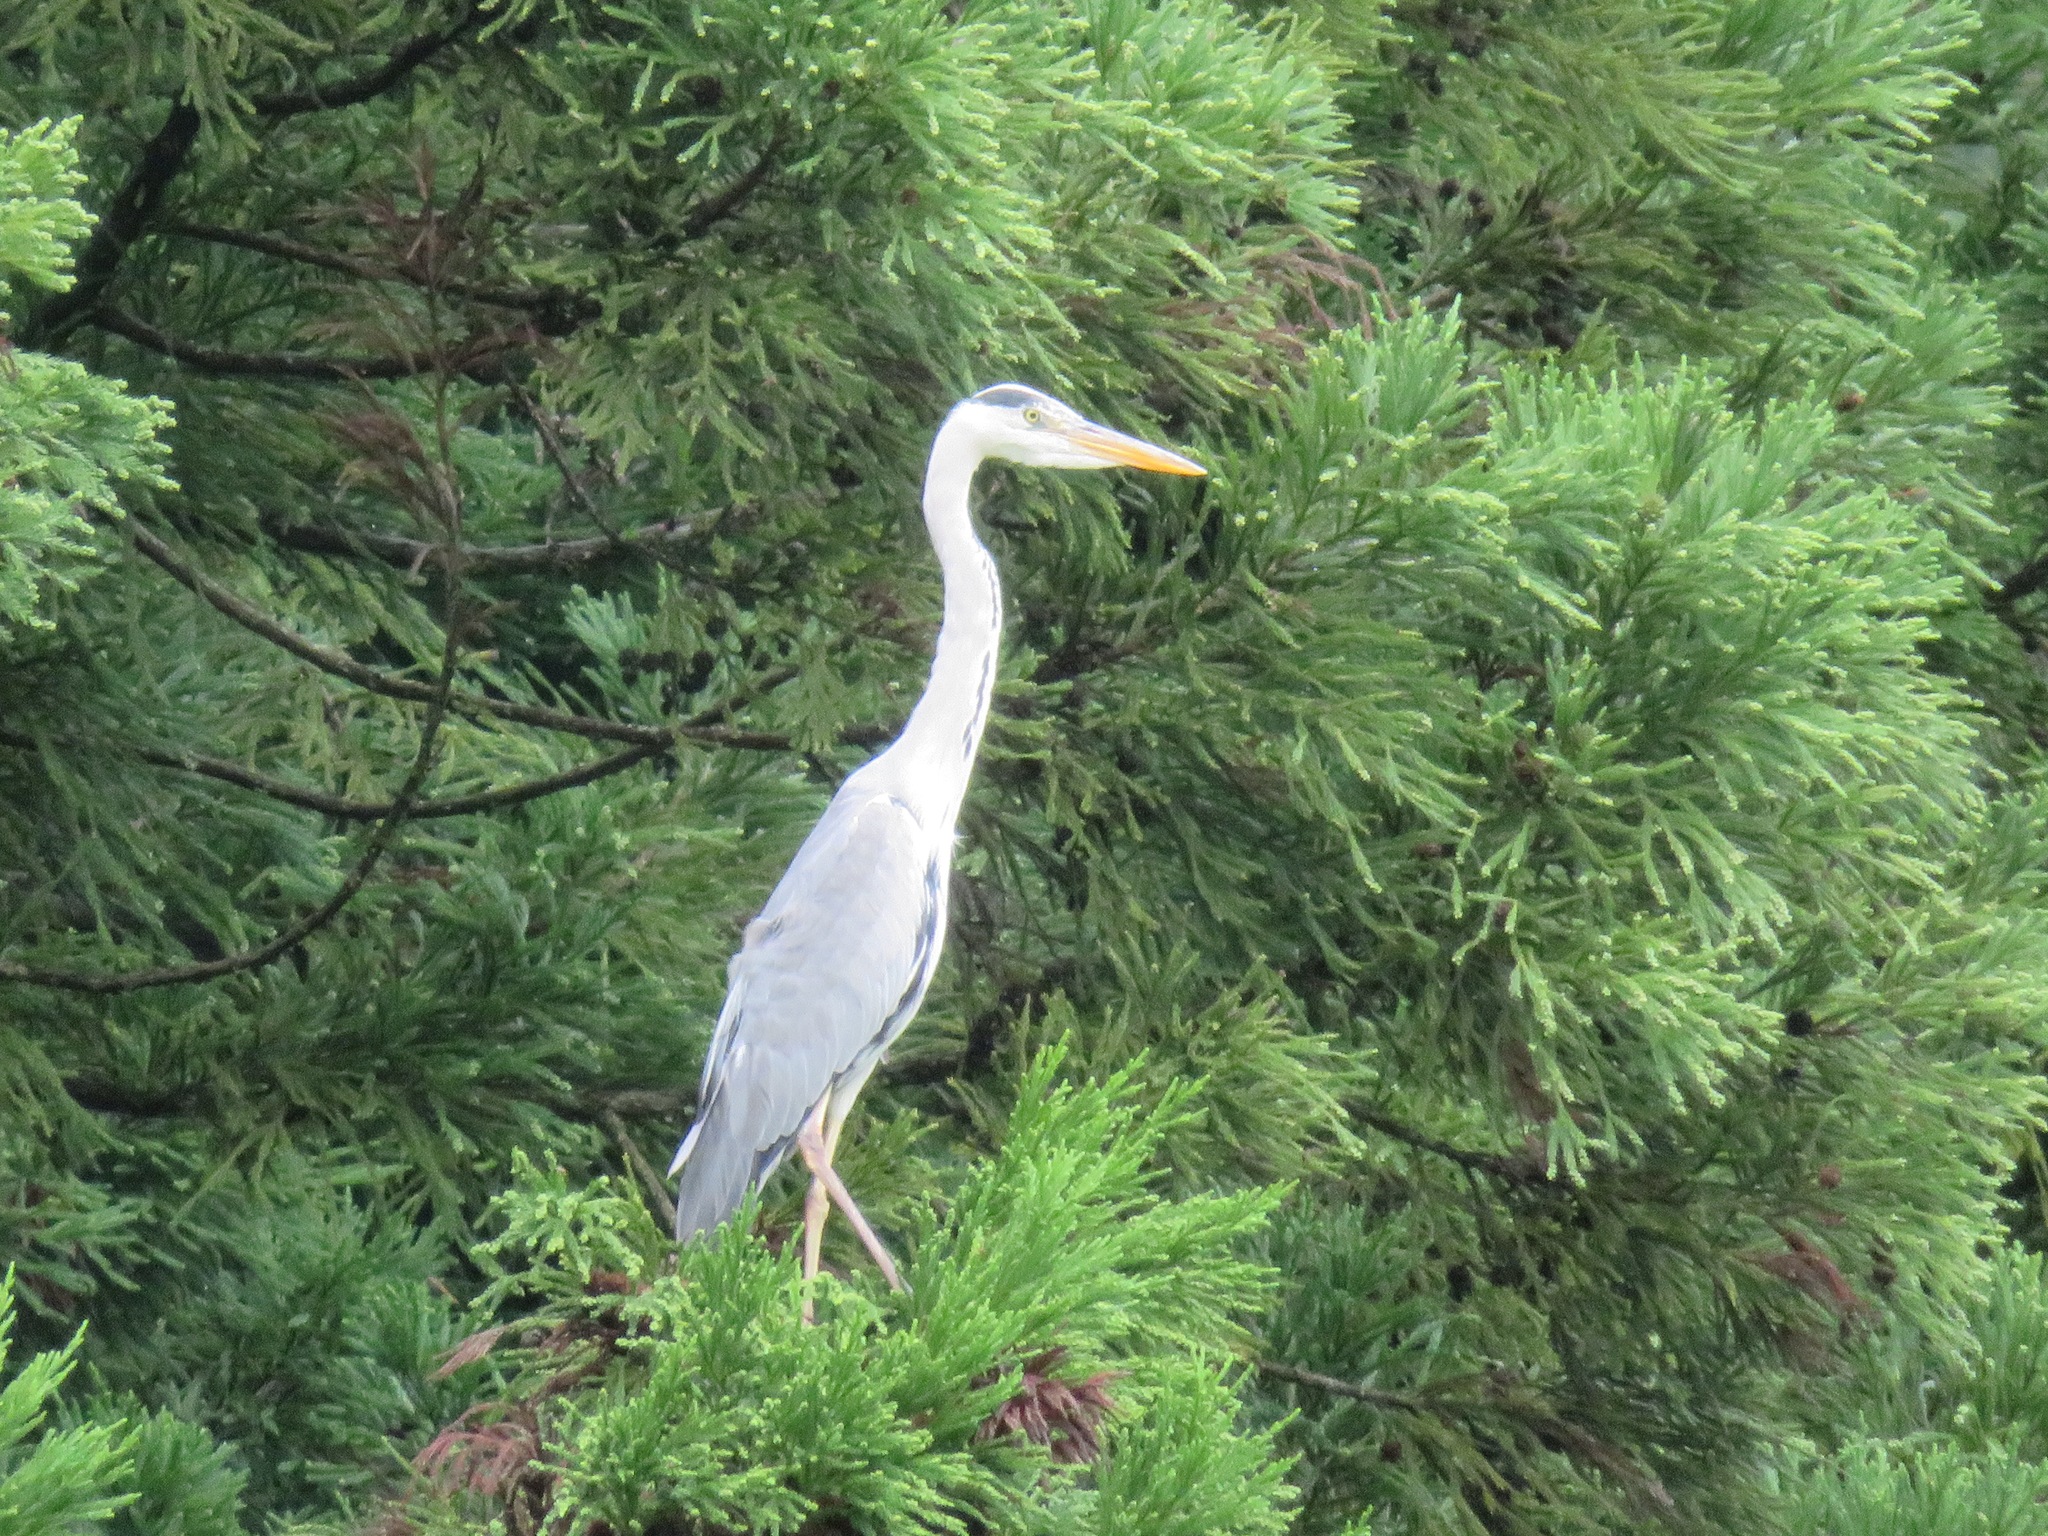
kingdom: Animalia
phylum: Chordata
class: Aves
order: Pelecaniformes
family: Ardeidae
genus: Ardea
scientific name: Ardea cinerea
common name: Grey heron
